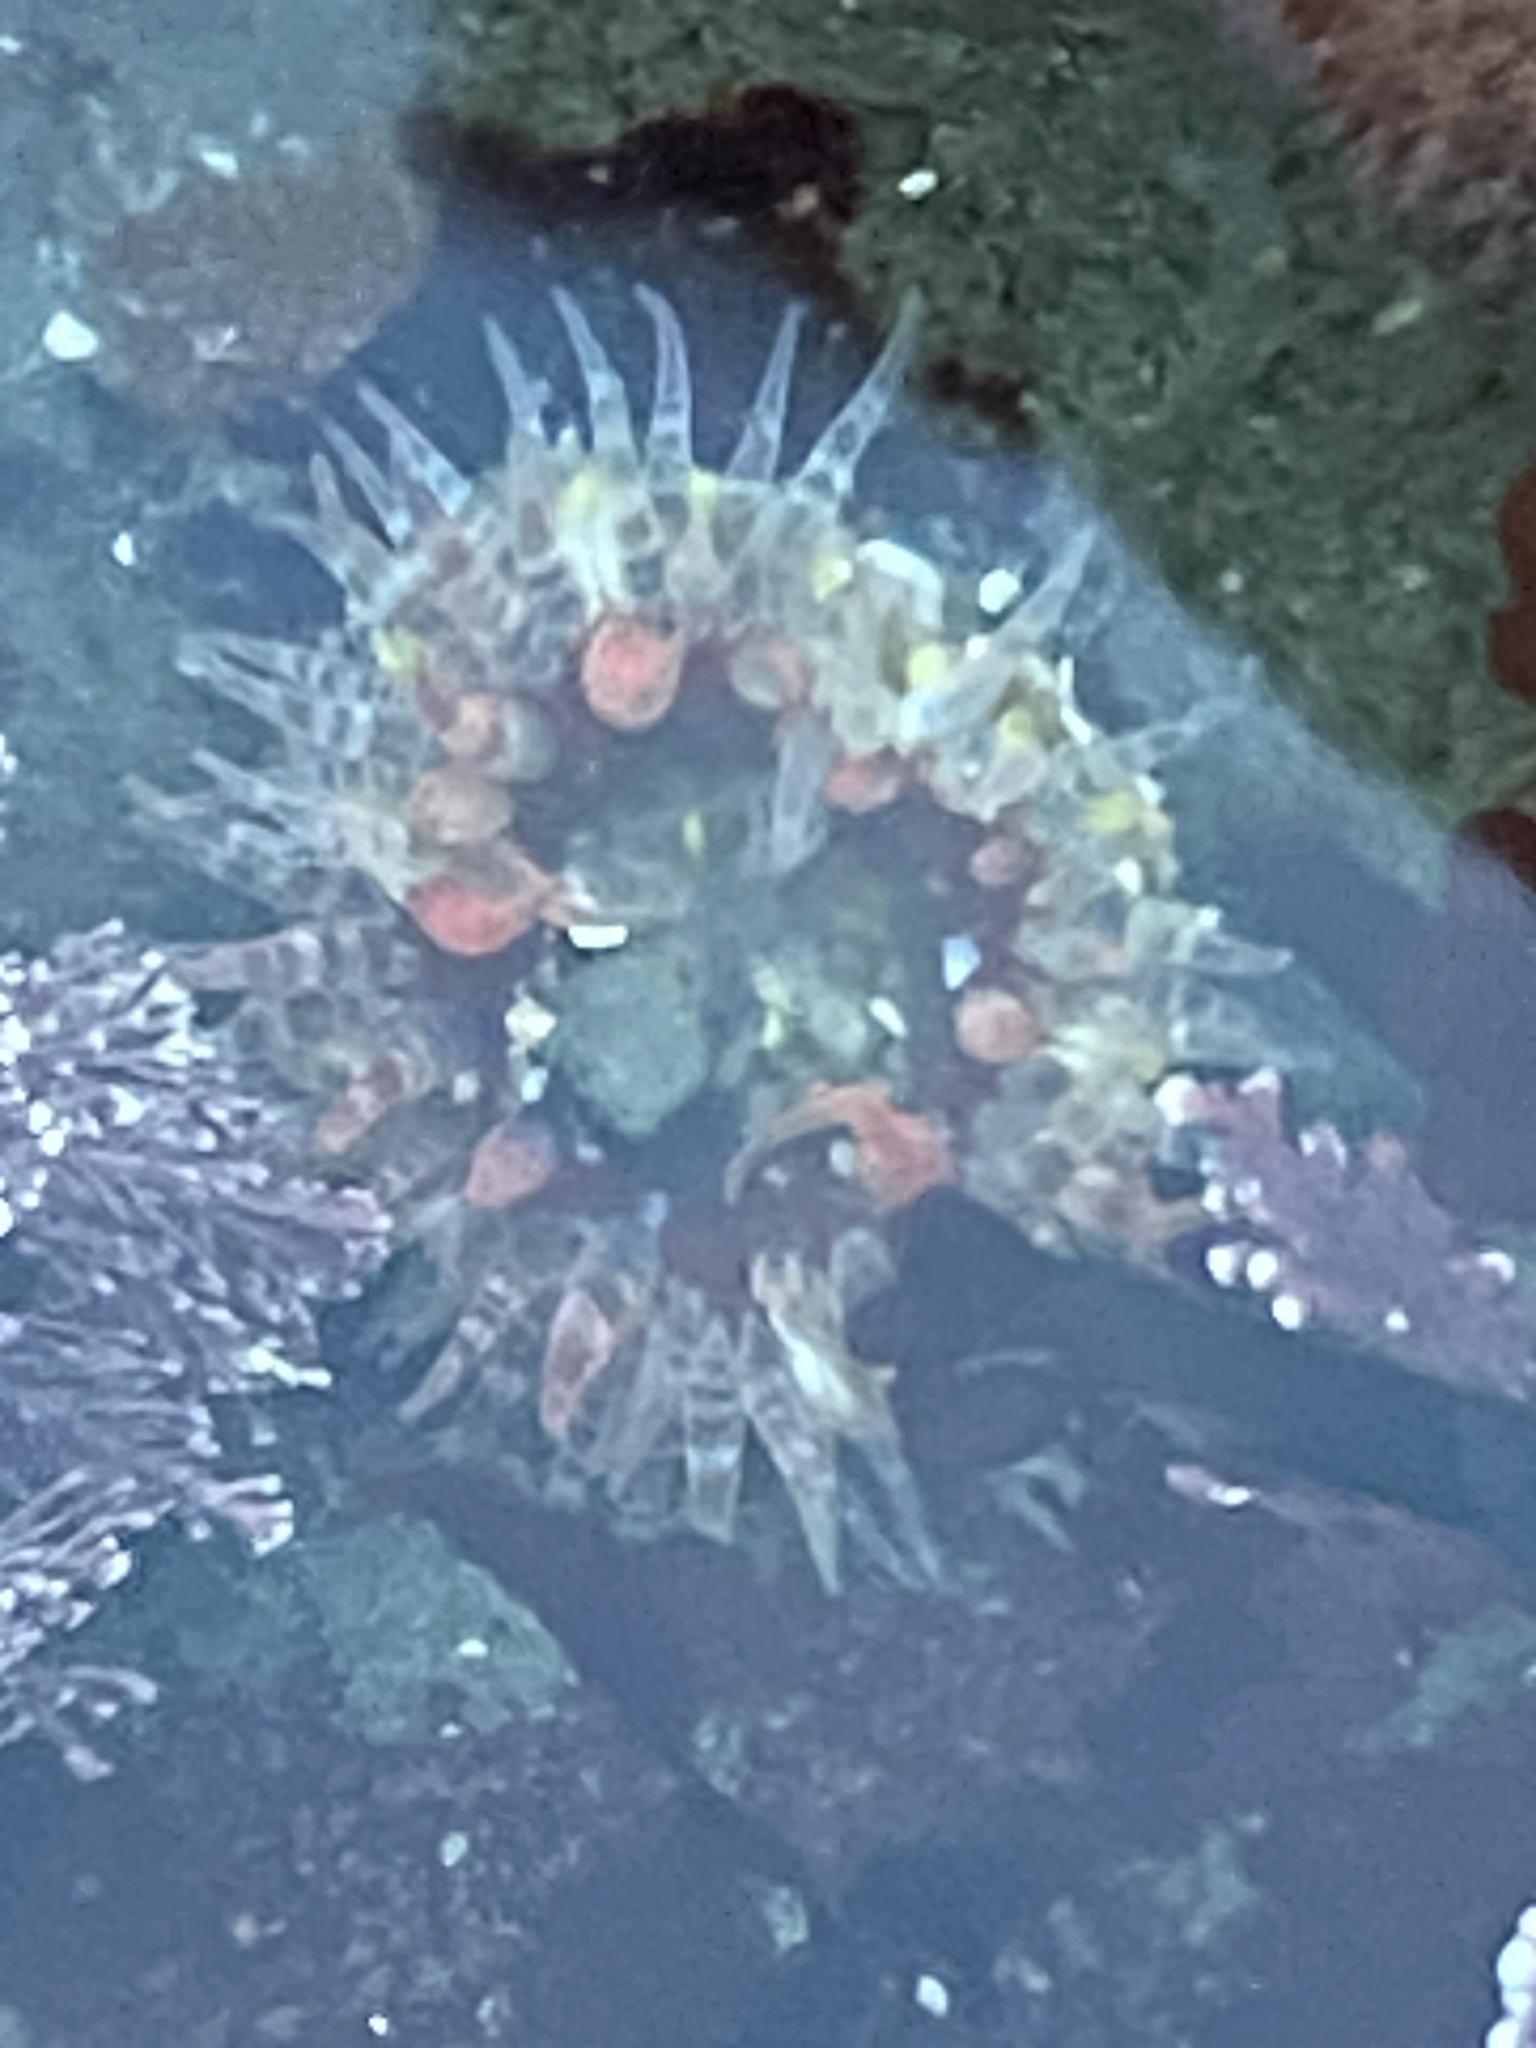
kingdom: Animalia
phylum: Cnidaria
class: Anthozoa
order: Actiniaria
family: Actiniidae
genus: Anthopleura
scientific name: Anthopleura artemisia
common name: Buried sea anemone
